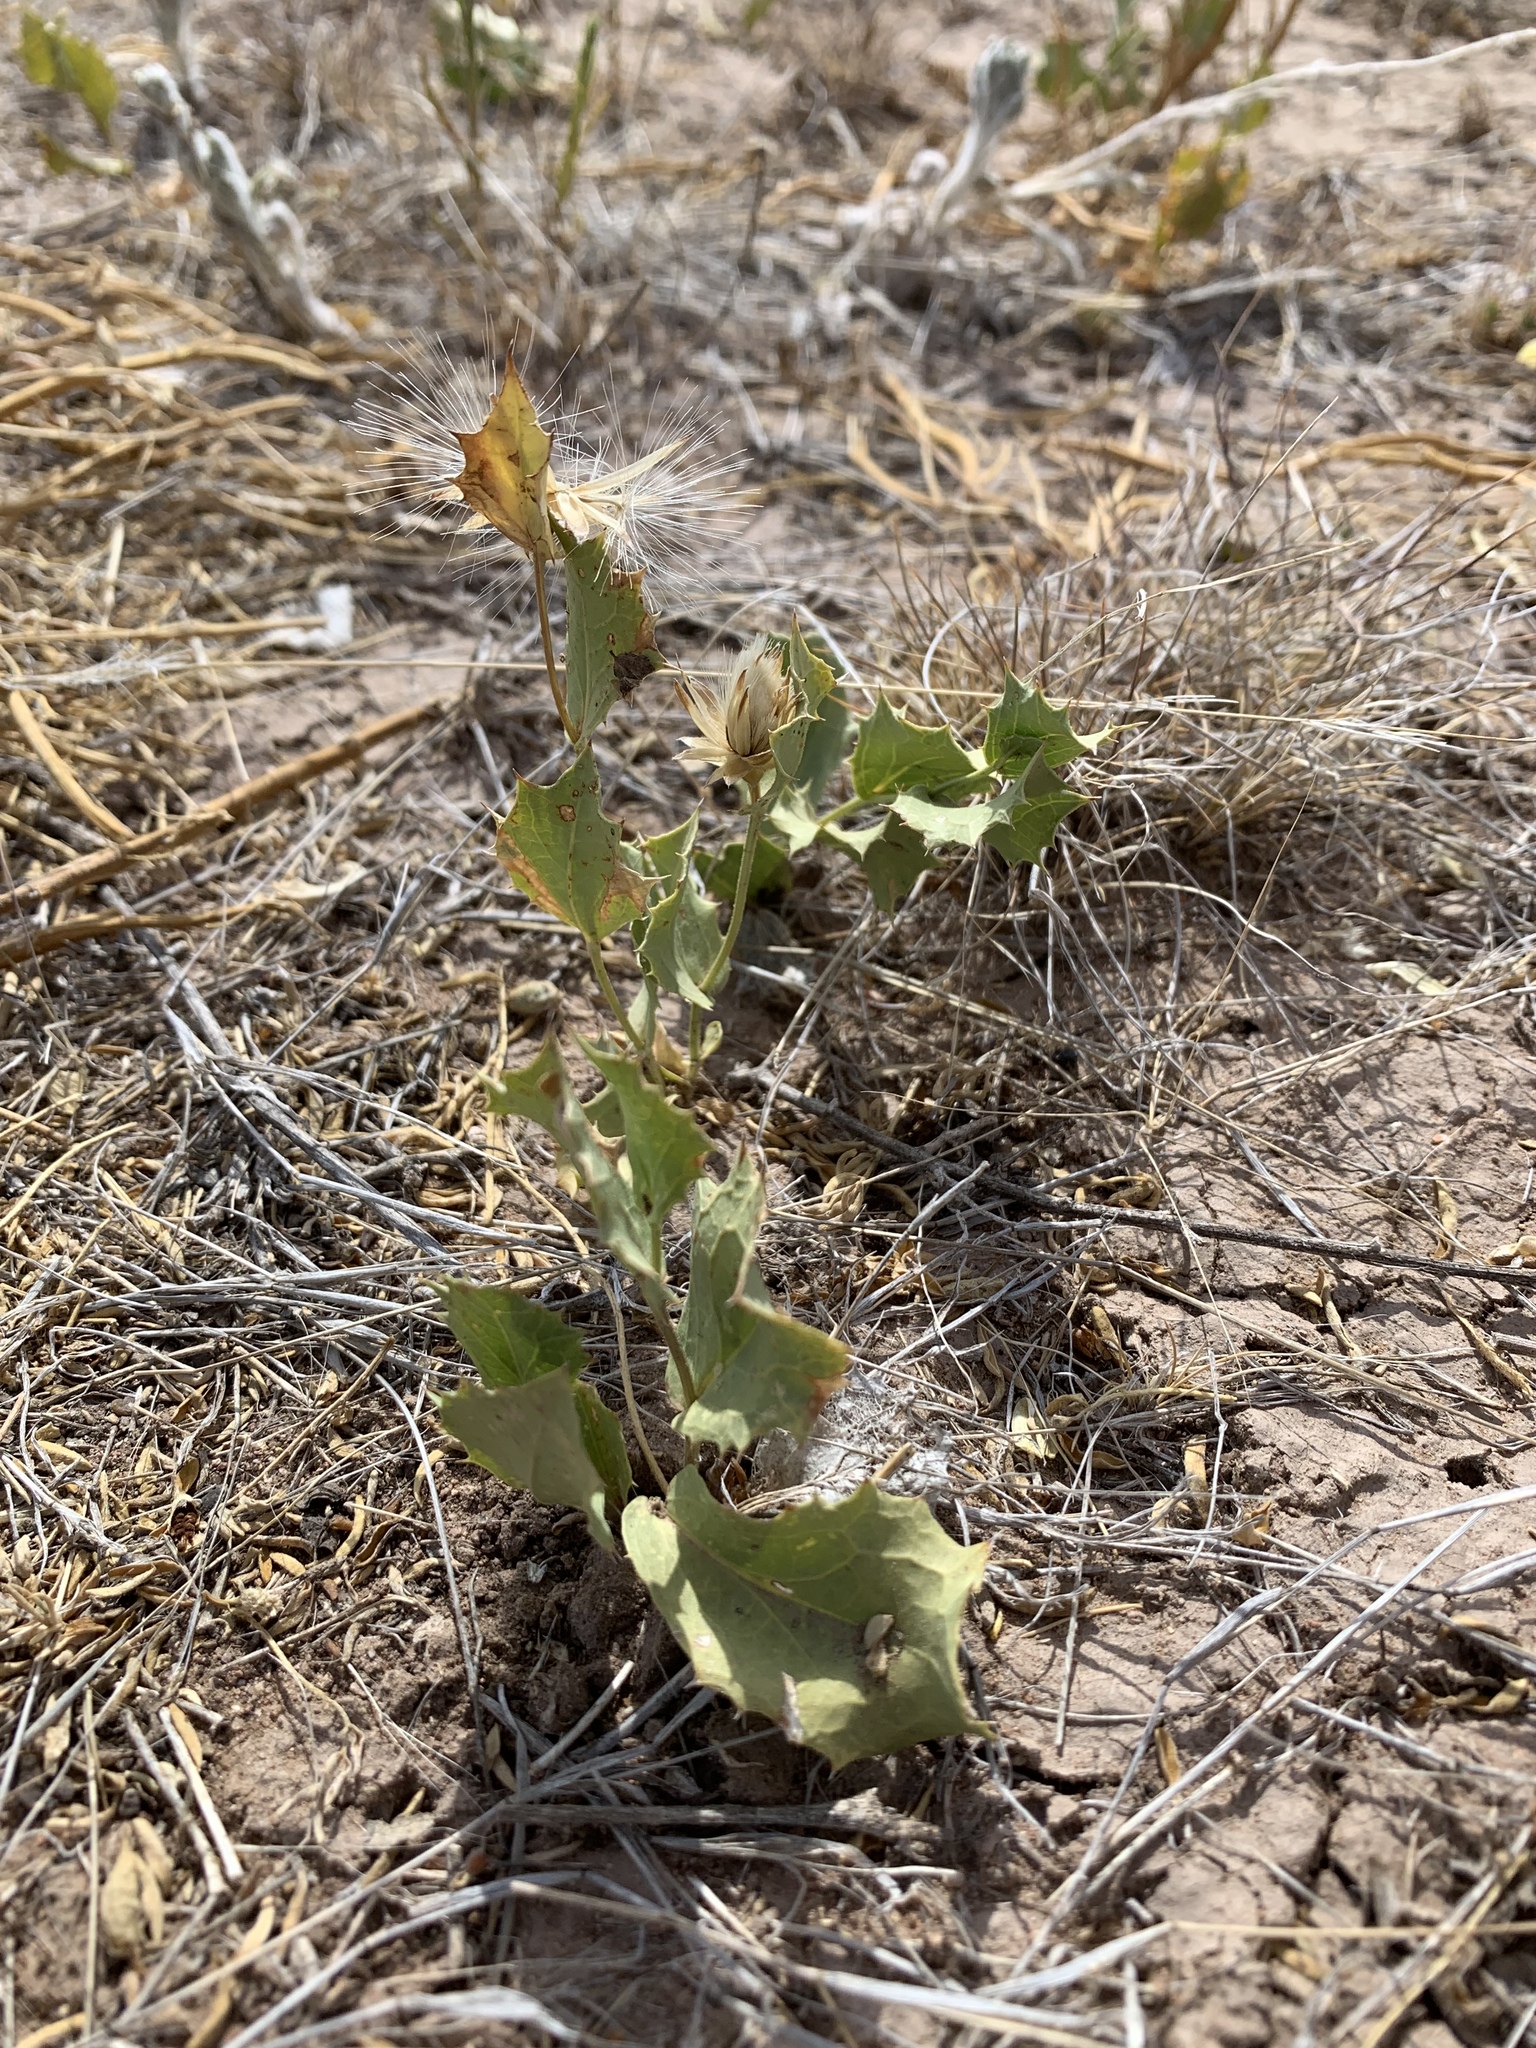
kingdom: Plantae
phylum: Tracheophyta
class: Magnoliopsida
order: Asterales
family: Asteraceae
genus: Acourtia
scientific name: Acourtia nana
